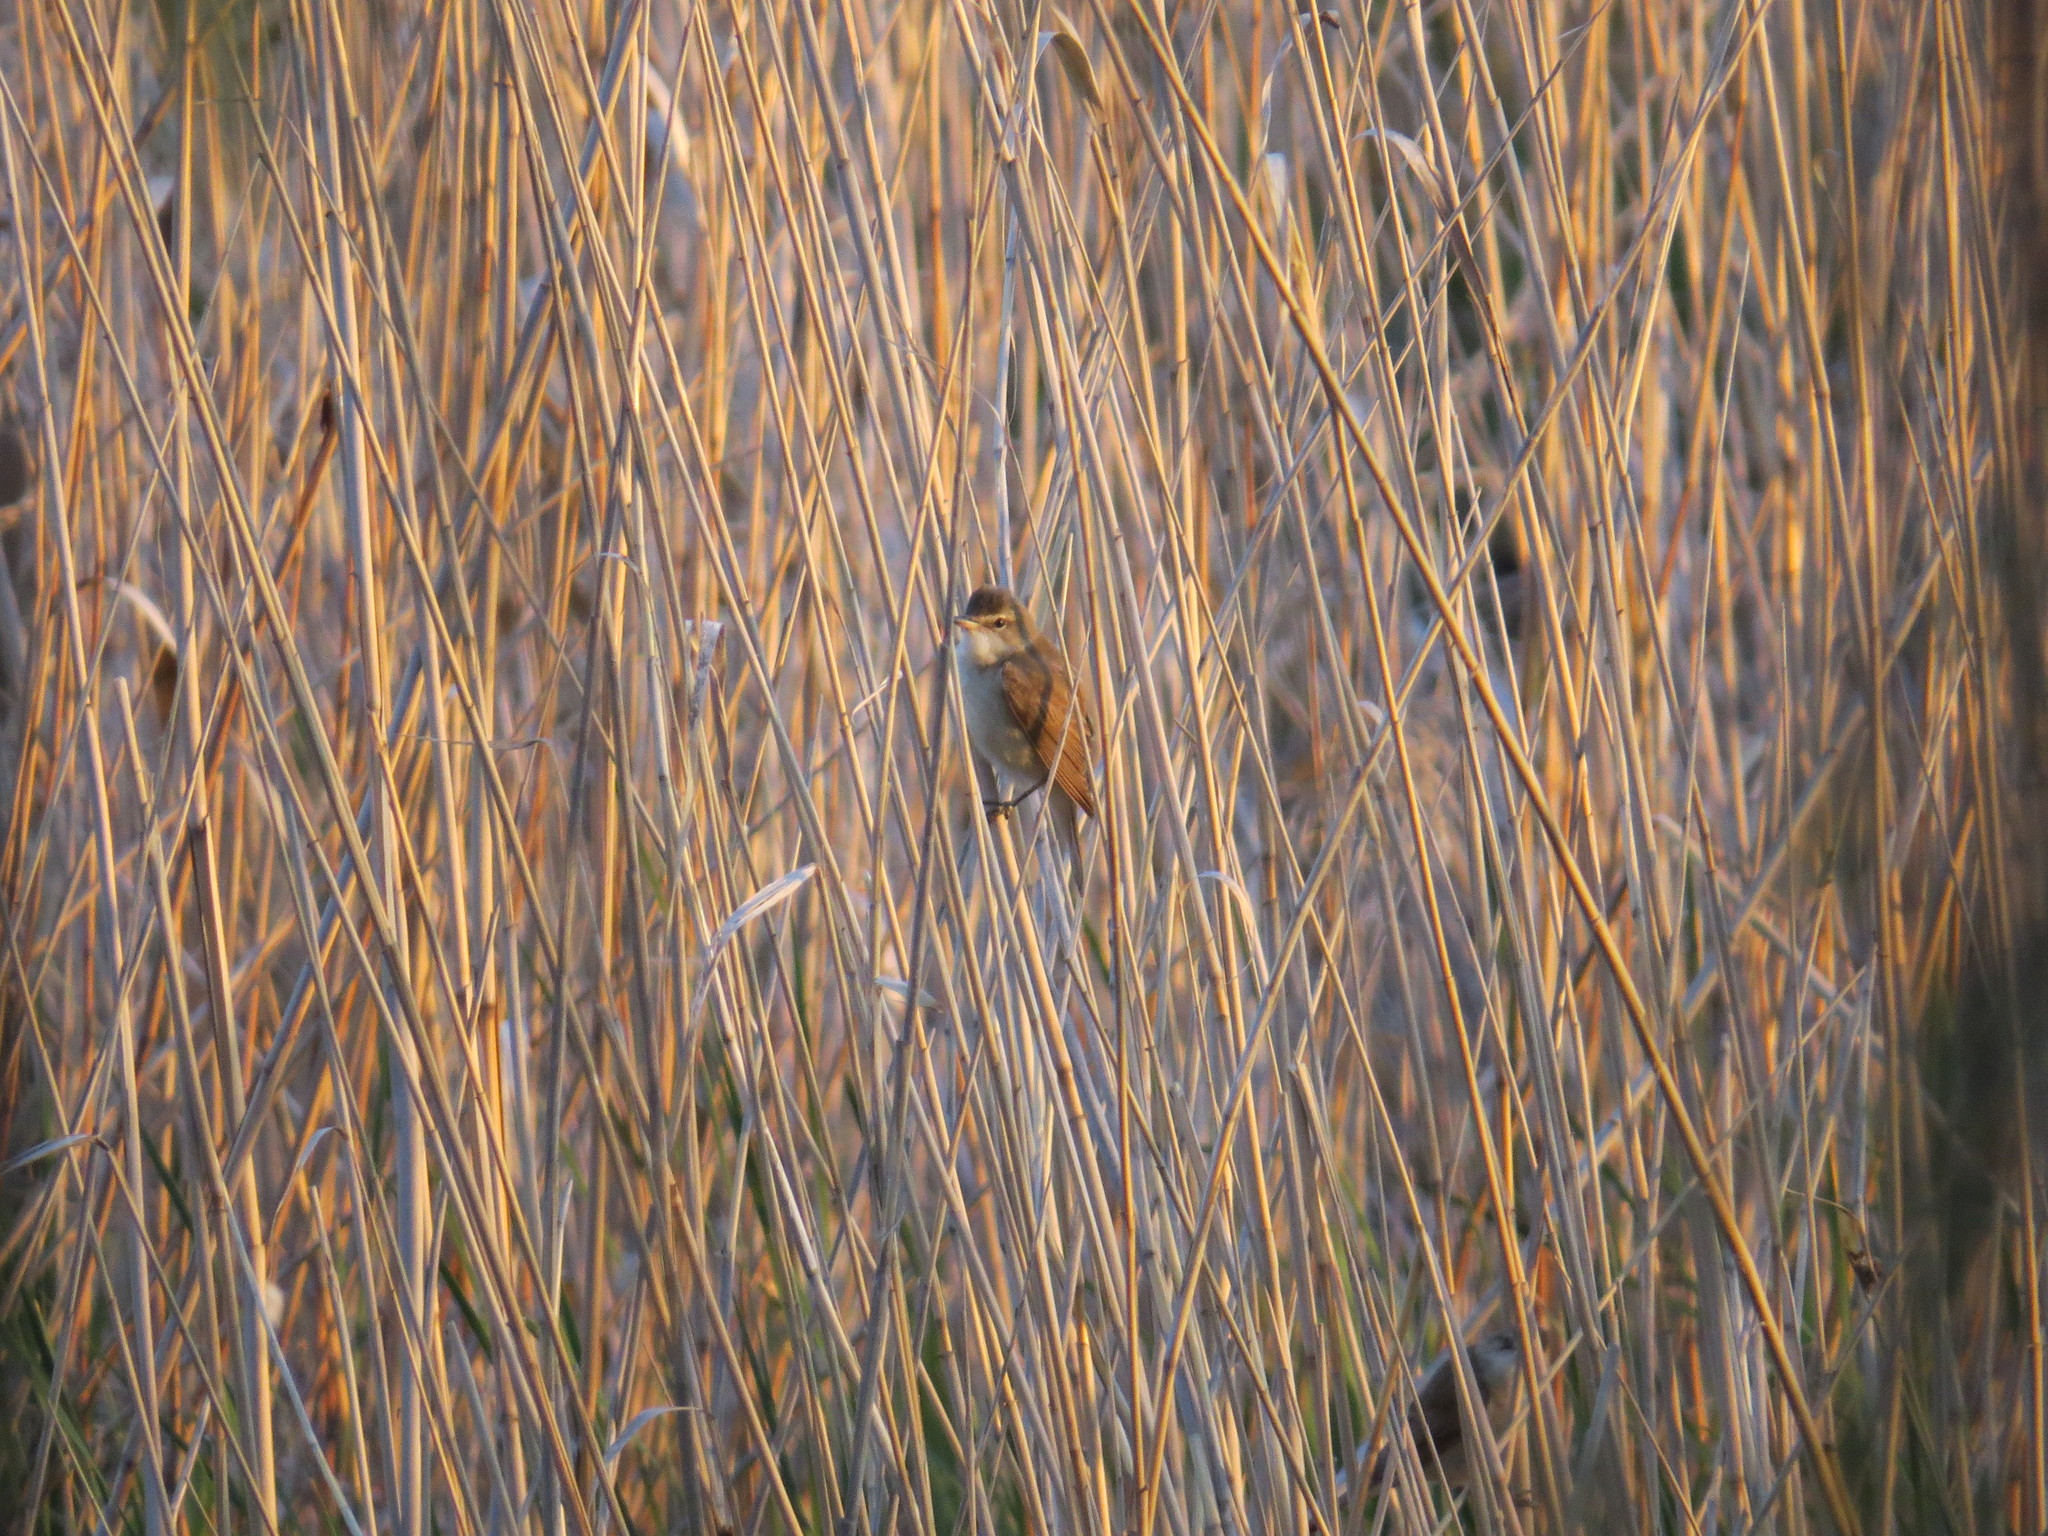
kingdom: Animalia
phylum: Chordata
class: Aves
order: Passeriformes
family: Acrocephalidae
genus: Acrocephalus
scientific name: Acrocephalus arundinaceus
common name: Great reed warbler
